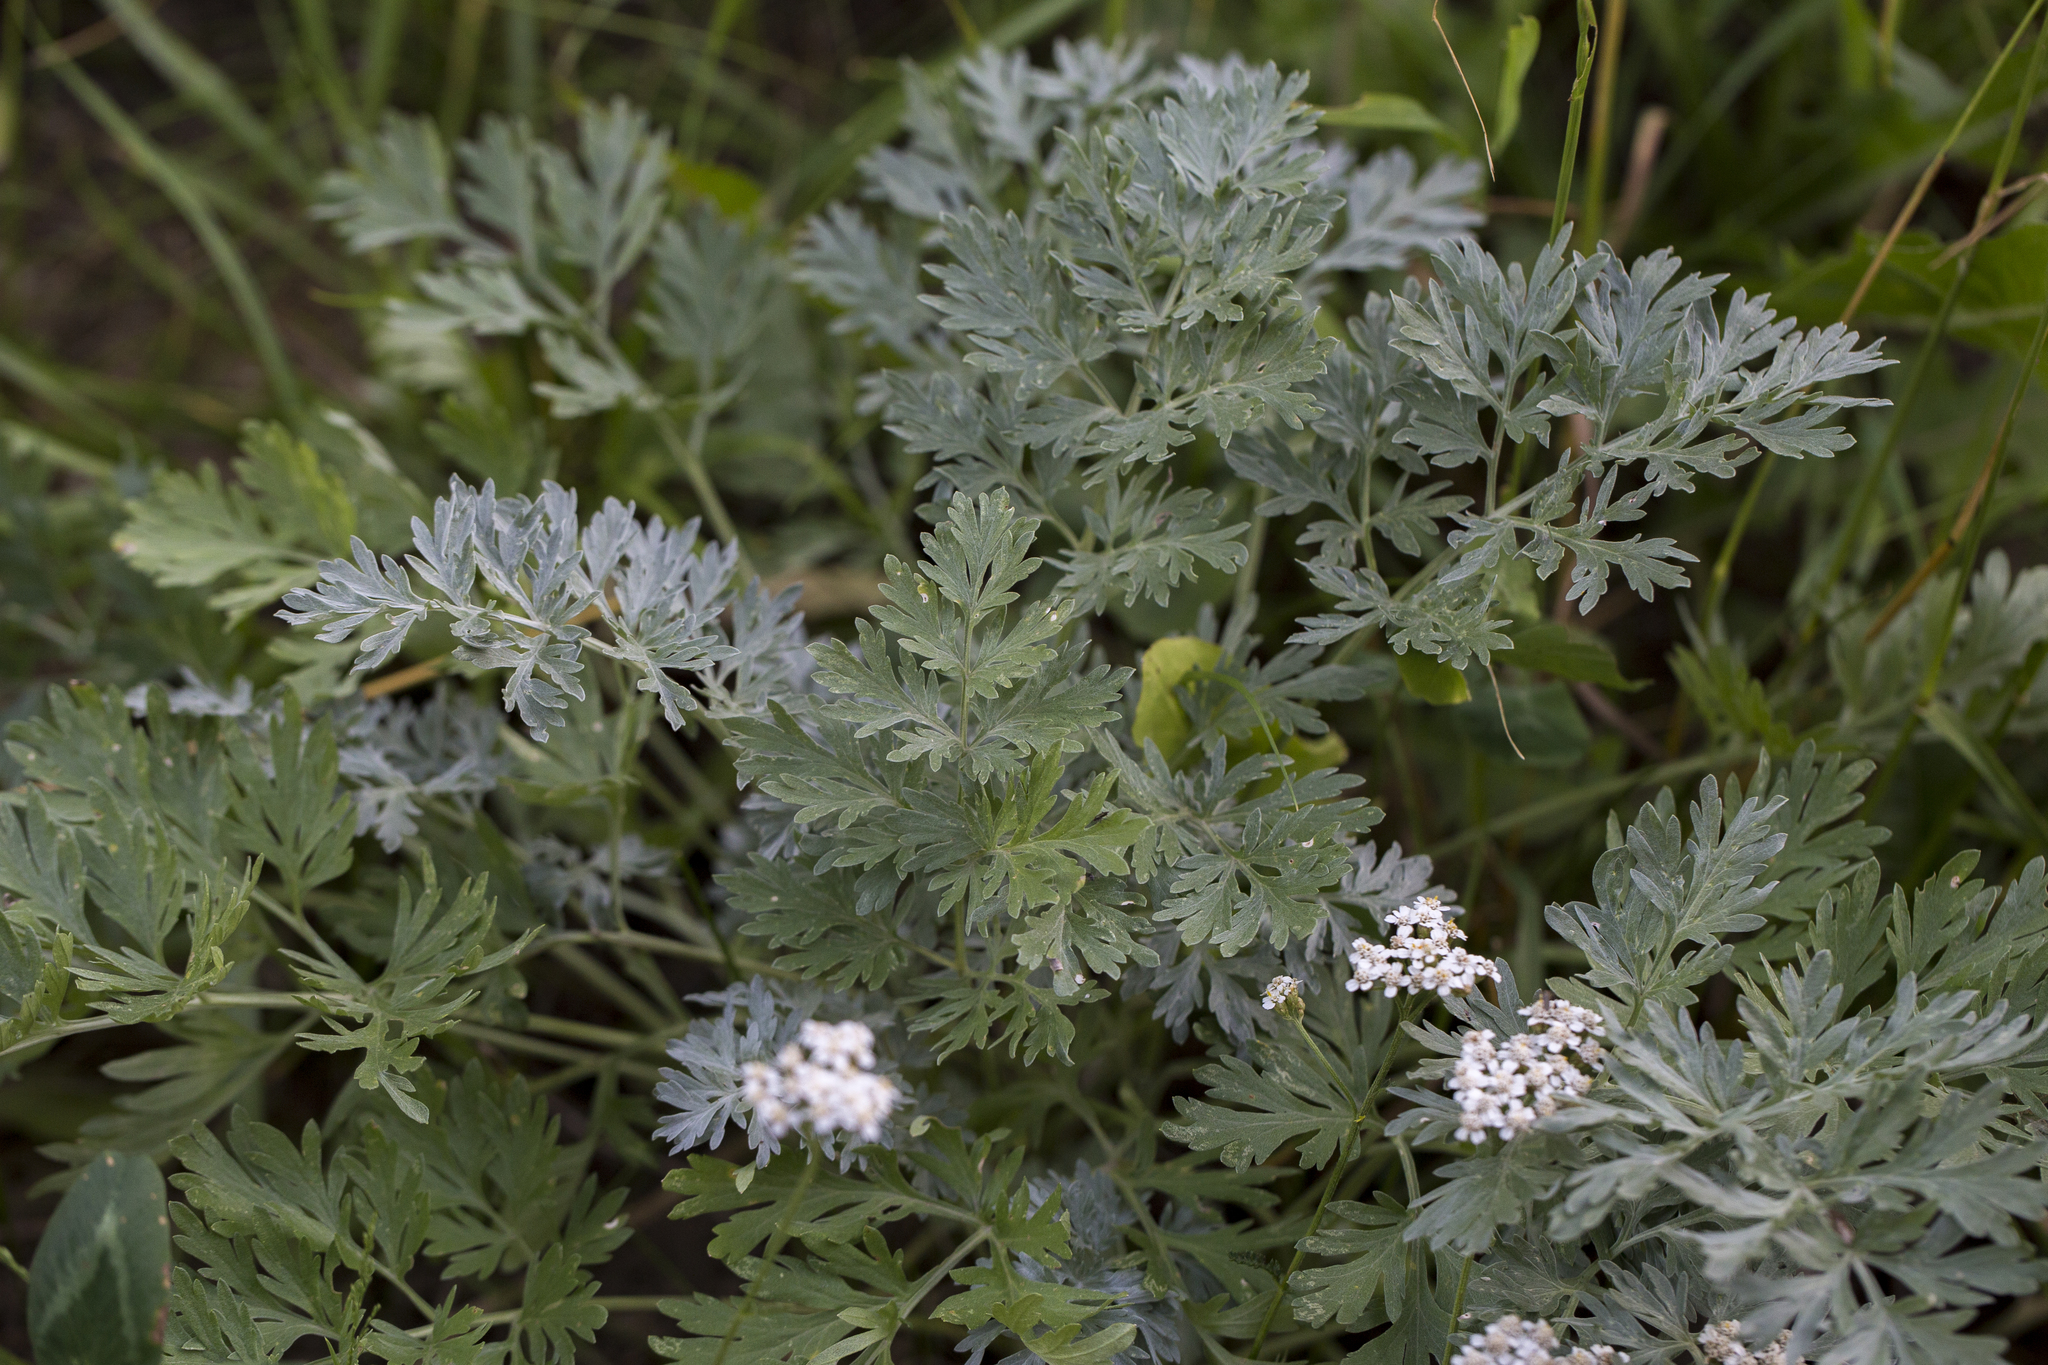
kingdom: Plantae
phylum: Tracheophyta
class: Magnoliopsida
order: Asterales
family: Asteraceae
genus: Artemisia
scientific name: Artemisia absinthium
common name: Wormwood
